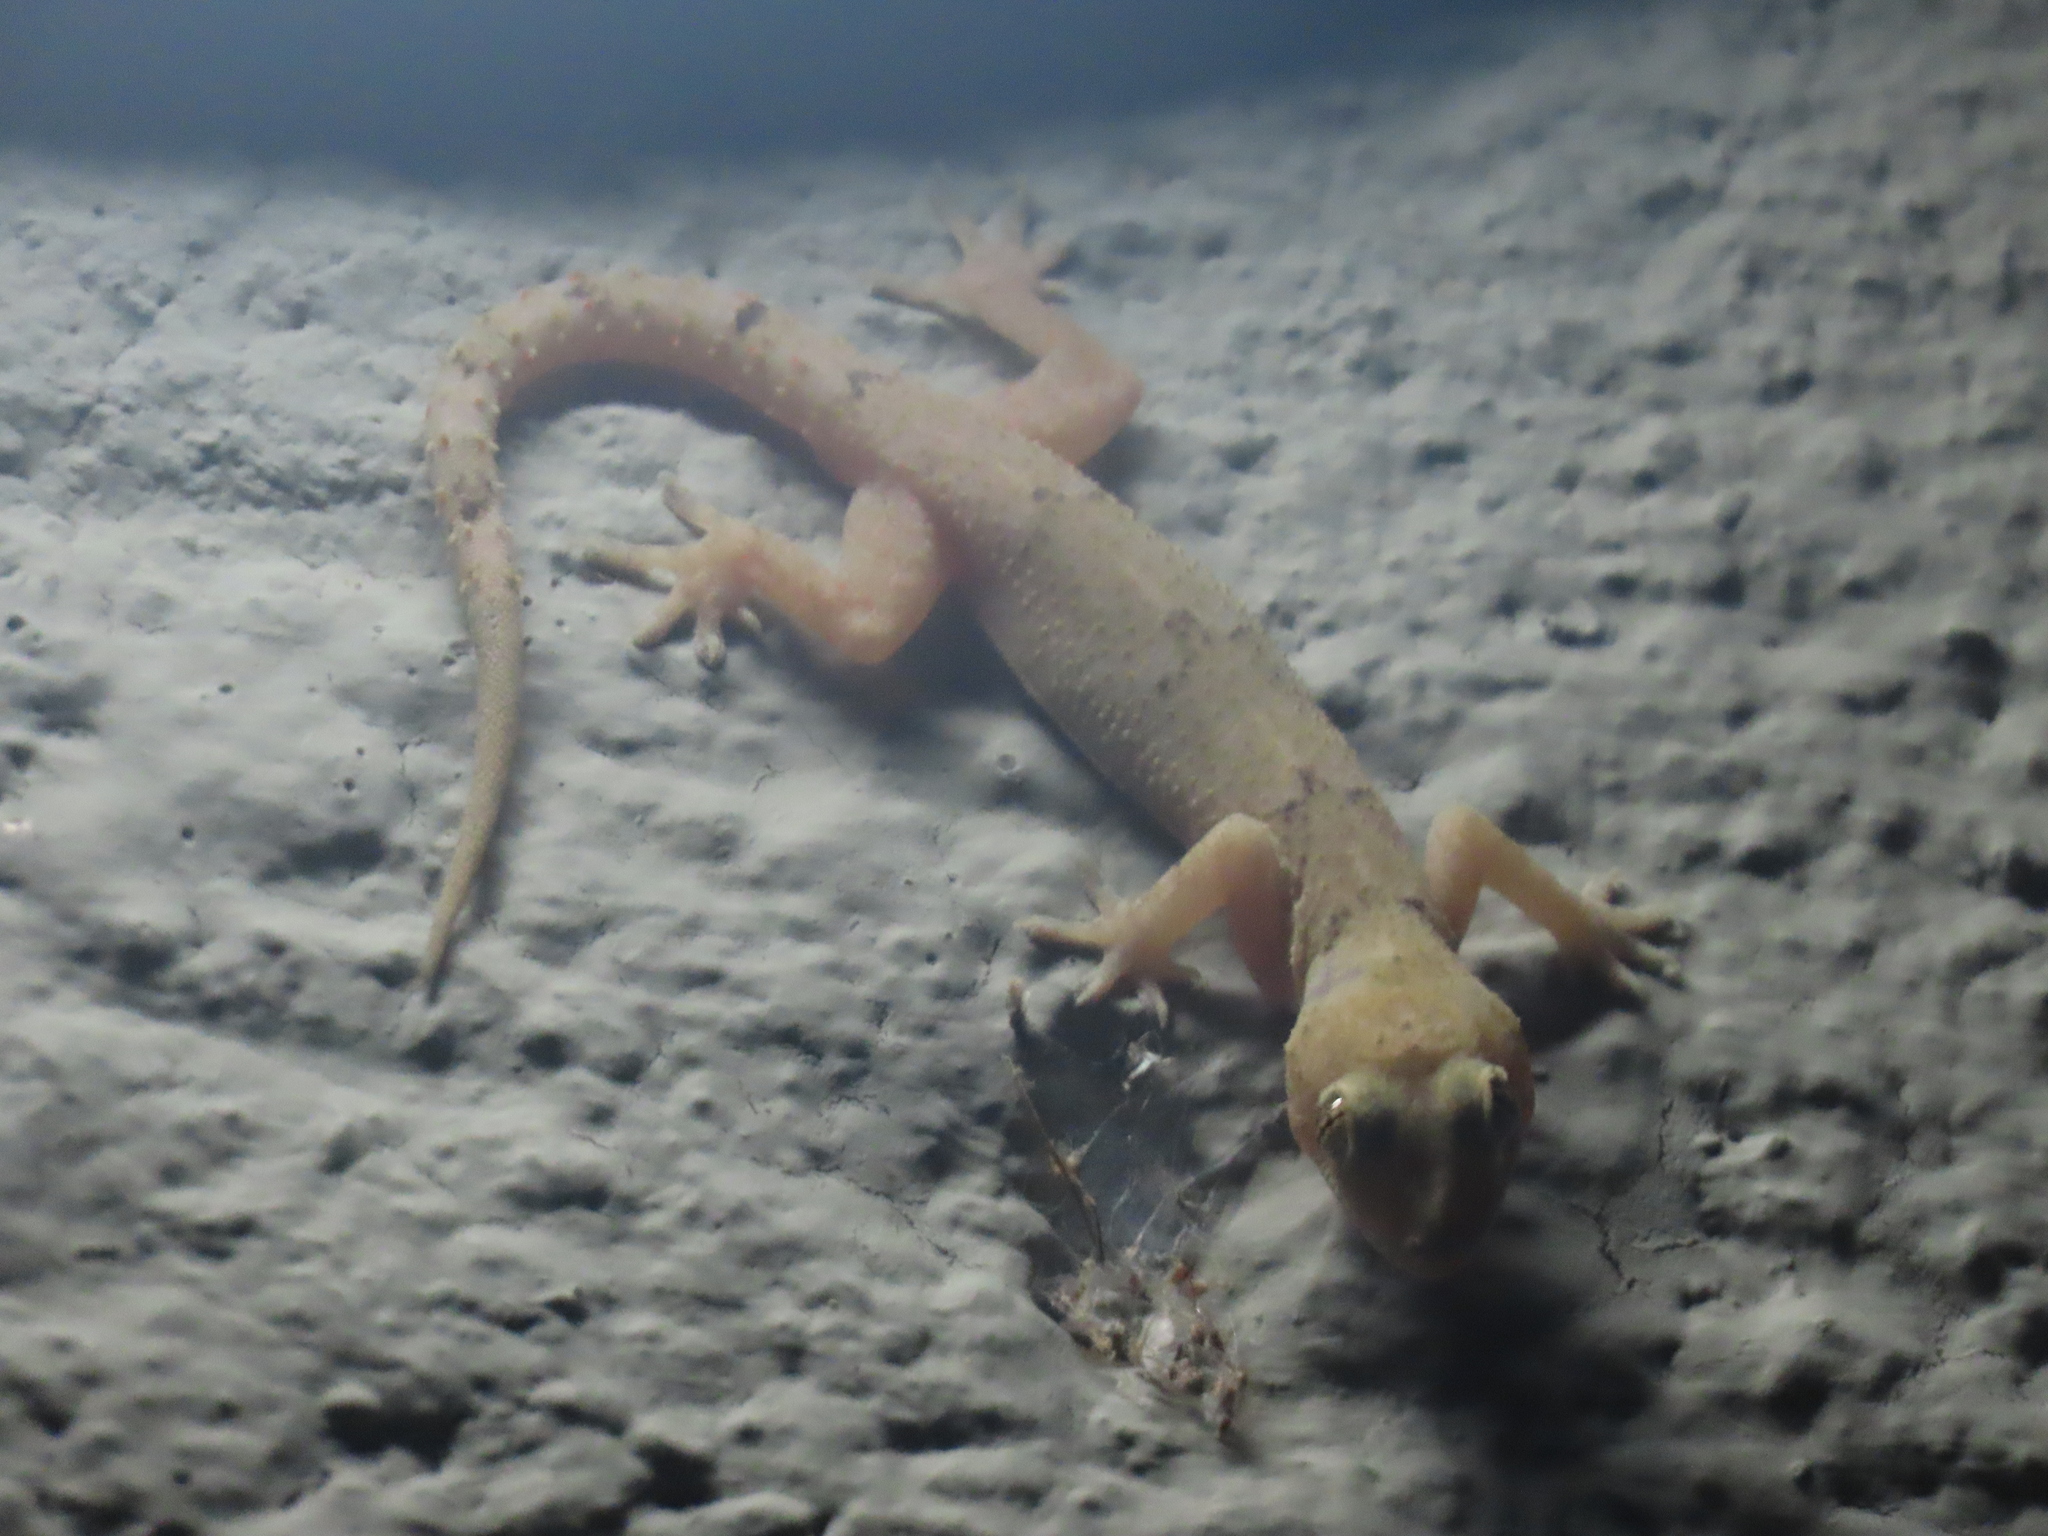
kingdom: Animalia
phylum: Chordata
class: Squamata
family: Gekkonidae
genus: Hemidactylus
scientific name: Hemidactylus mabouia
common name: House gecko
